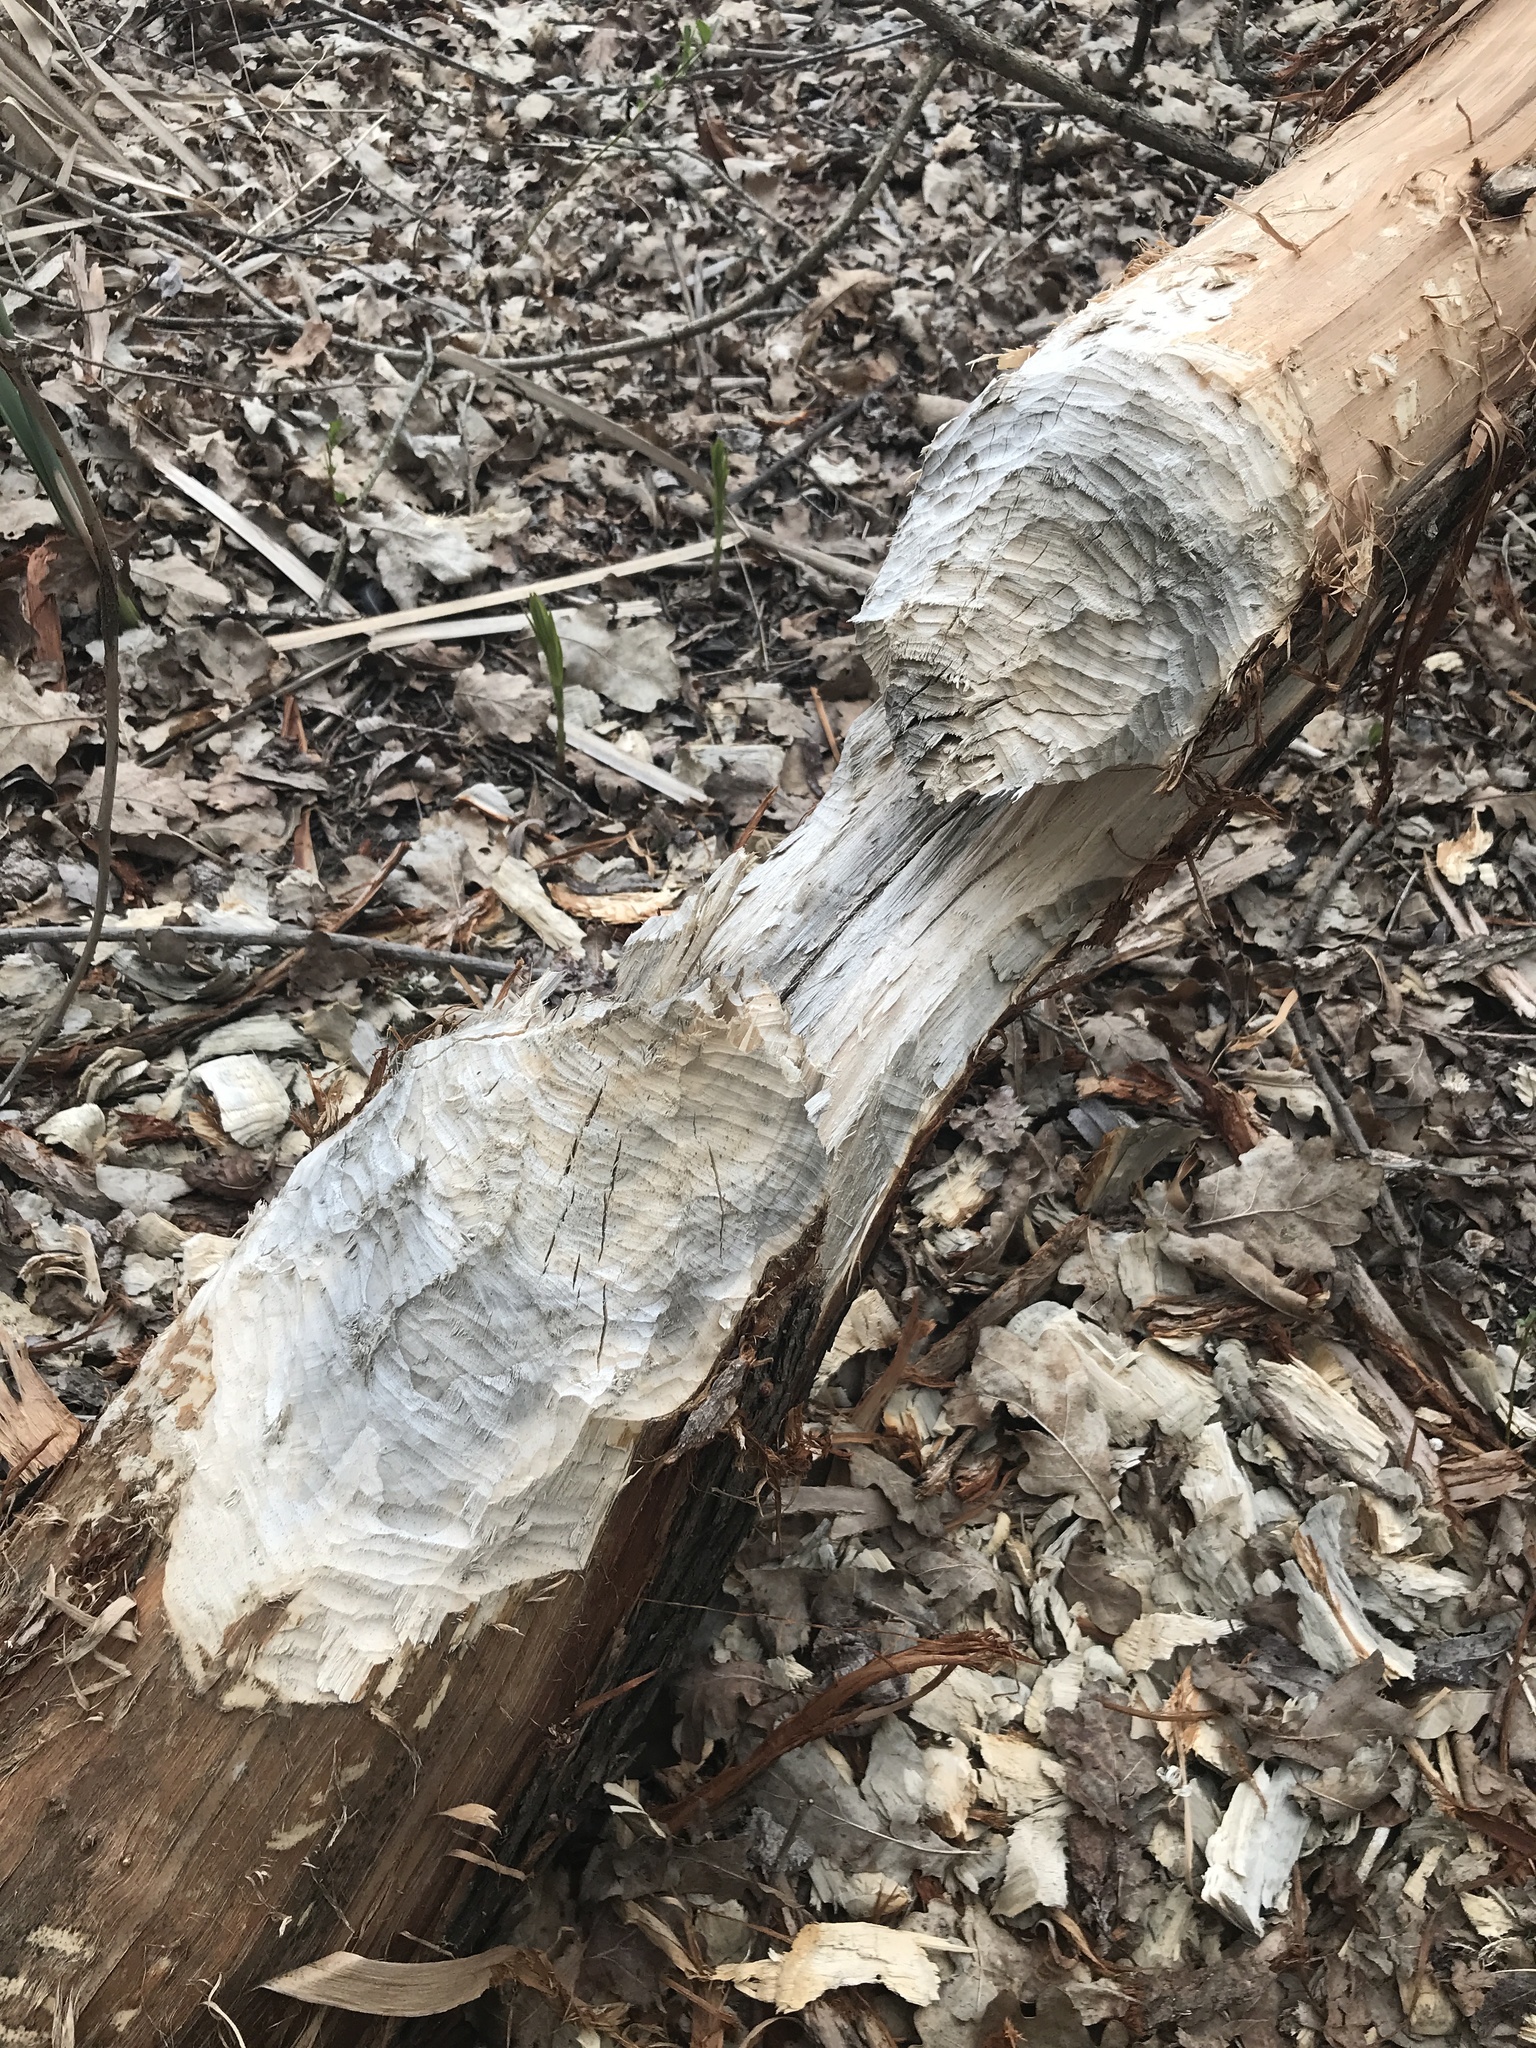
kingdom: Animalia
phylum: Chordata
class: Mammalia
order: Rodentia
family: Castoridae
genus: Castor
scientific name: Castor fiber
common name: Eurasian beaver
